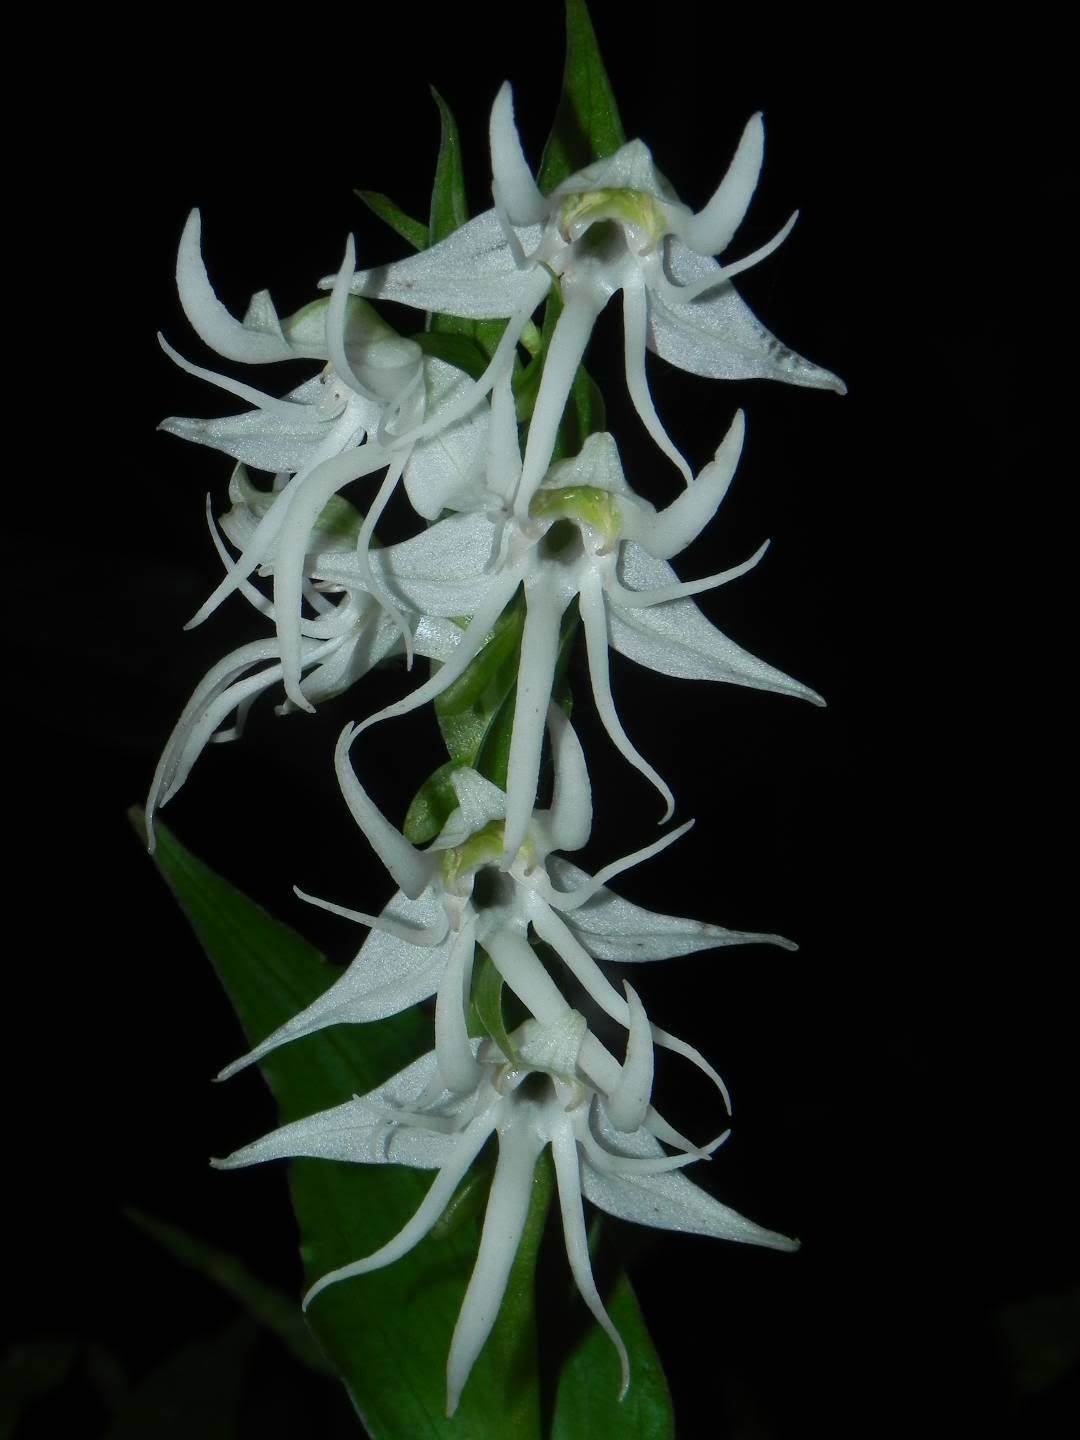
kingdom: Plantae
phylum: Tracheophyta
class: Liliopsida
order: Asparagales
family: Orchidaceae
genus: Habenaria
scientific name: Habenaria gibsonii
